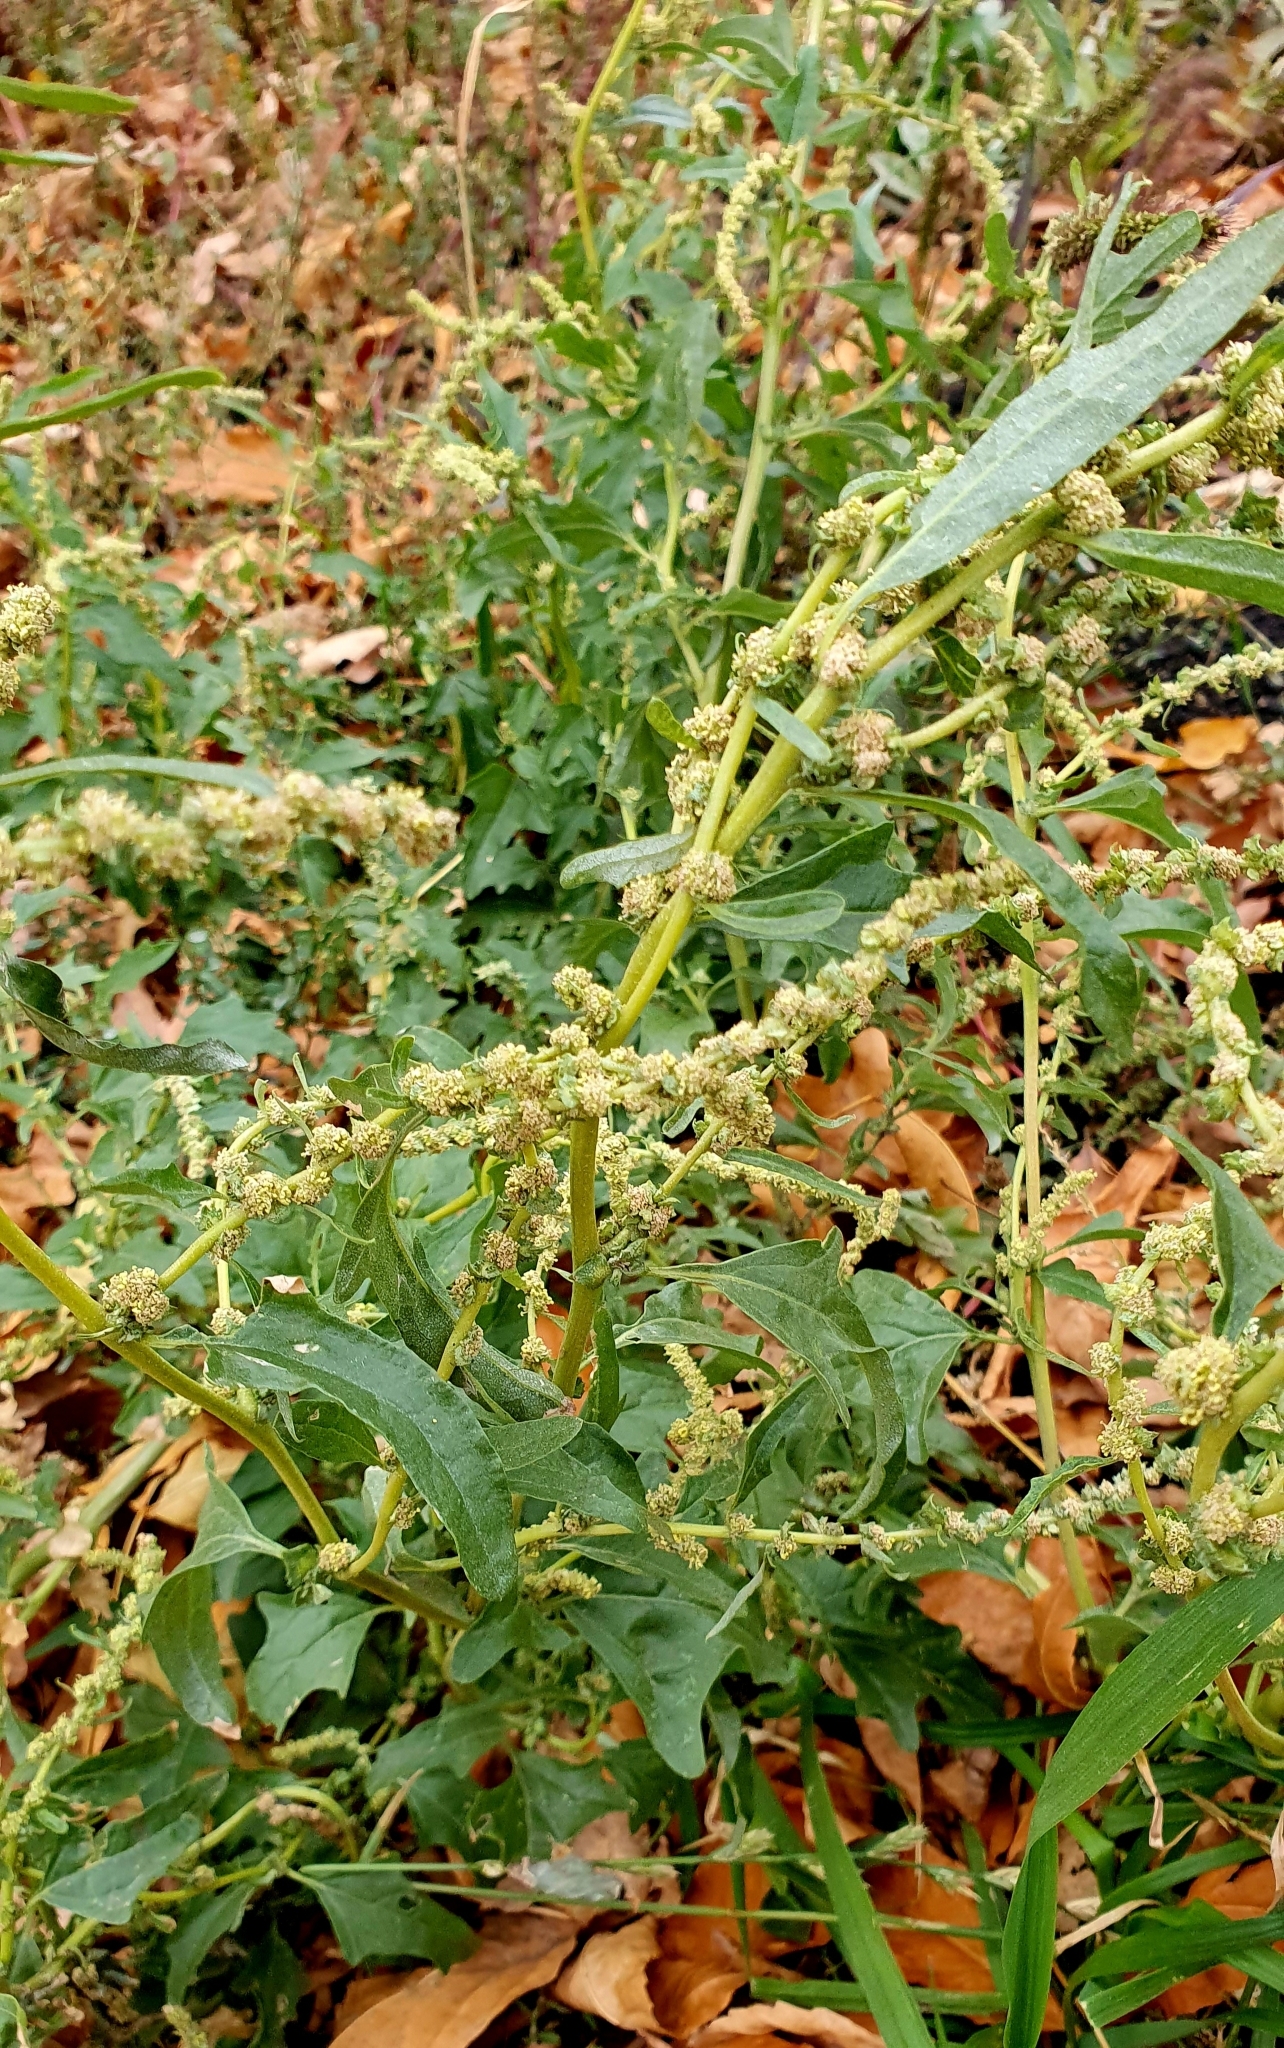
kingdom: Plantae
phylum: Tracheophyta
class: Magnoliopsida
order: Caryophyllales
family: Amaranthaceae
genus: Atriplex
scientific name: Atriplex tatarica
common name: Tatarian orache
